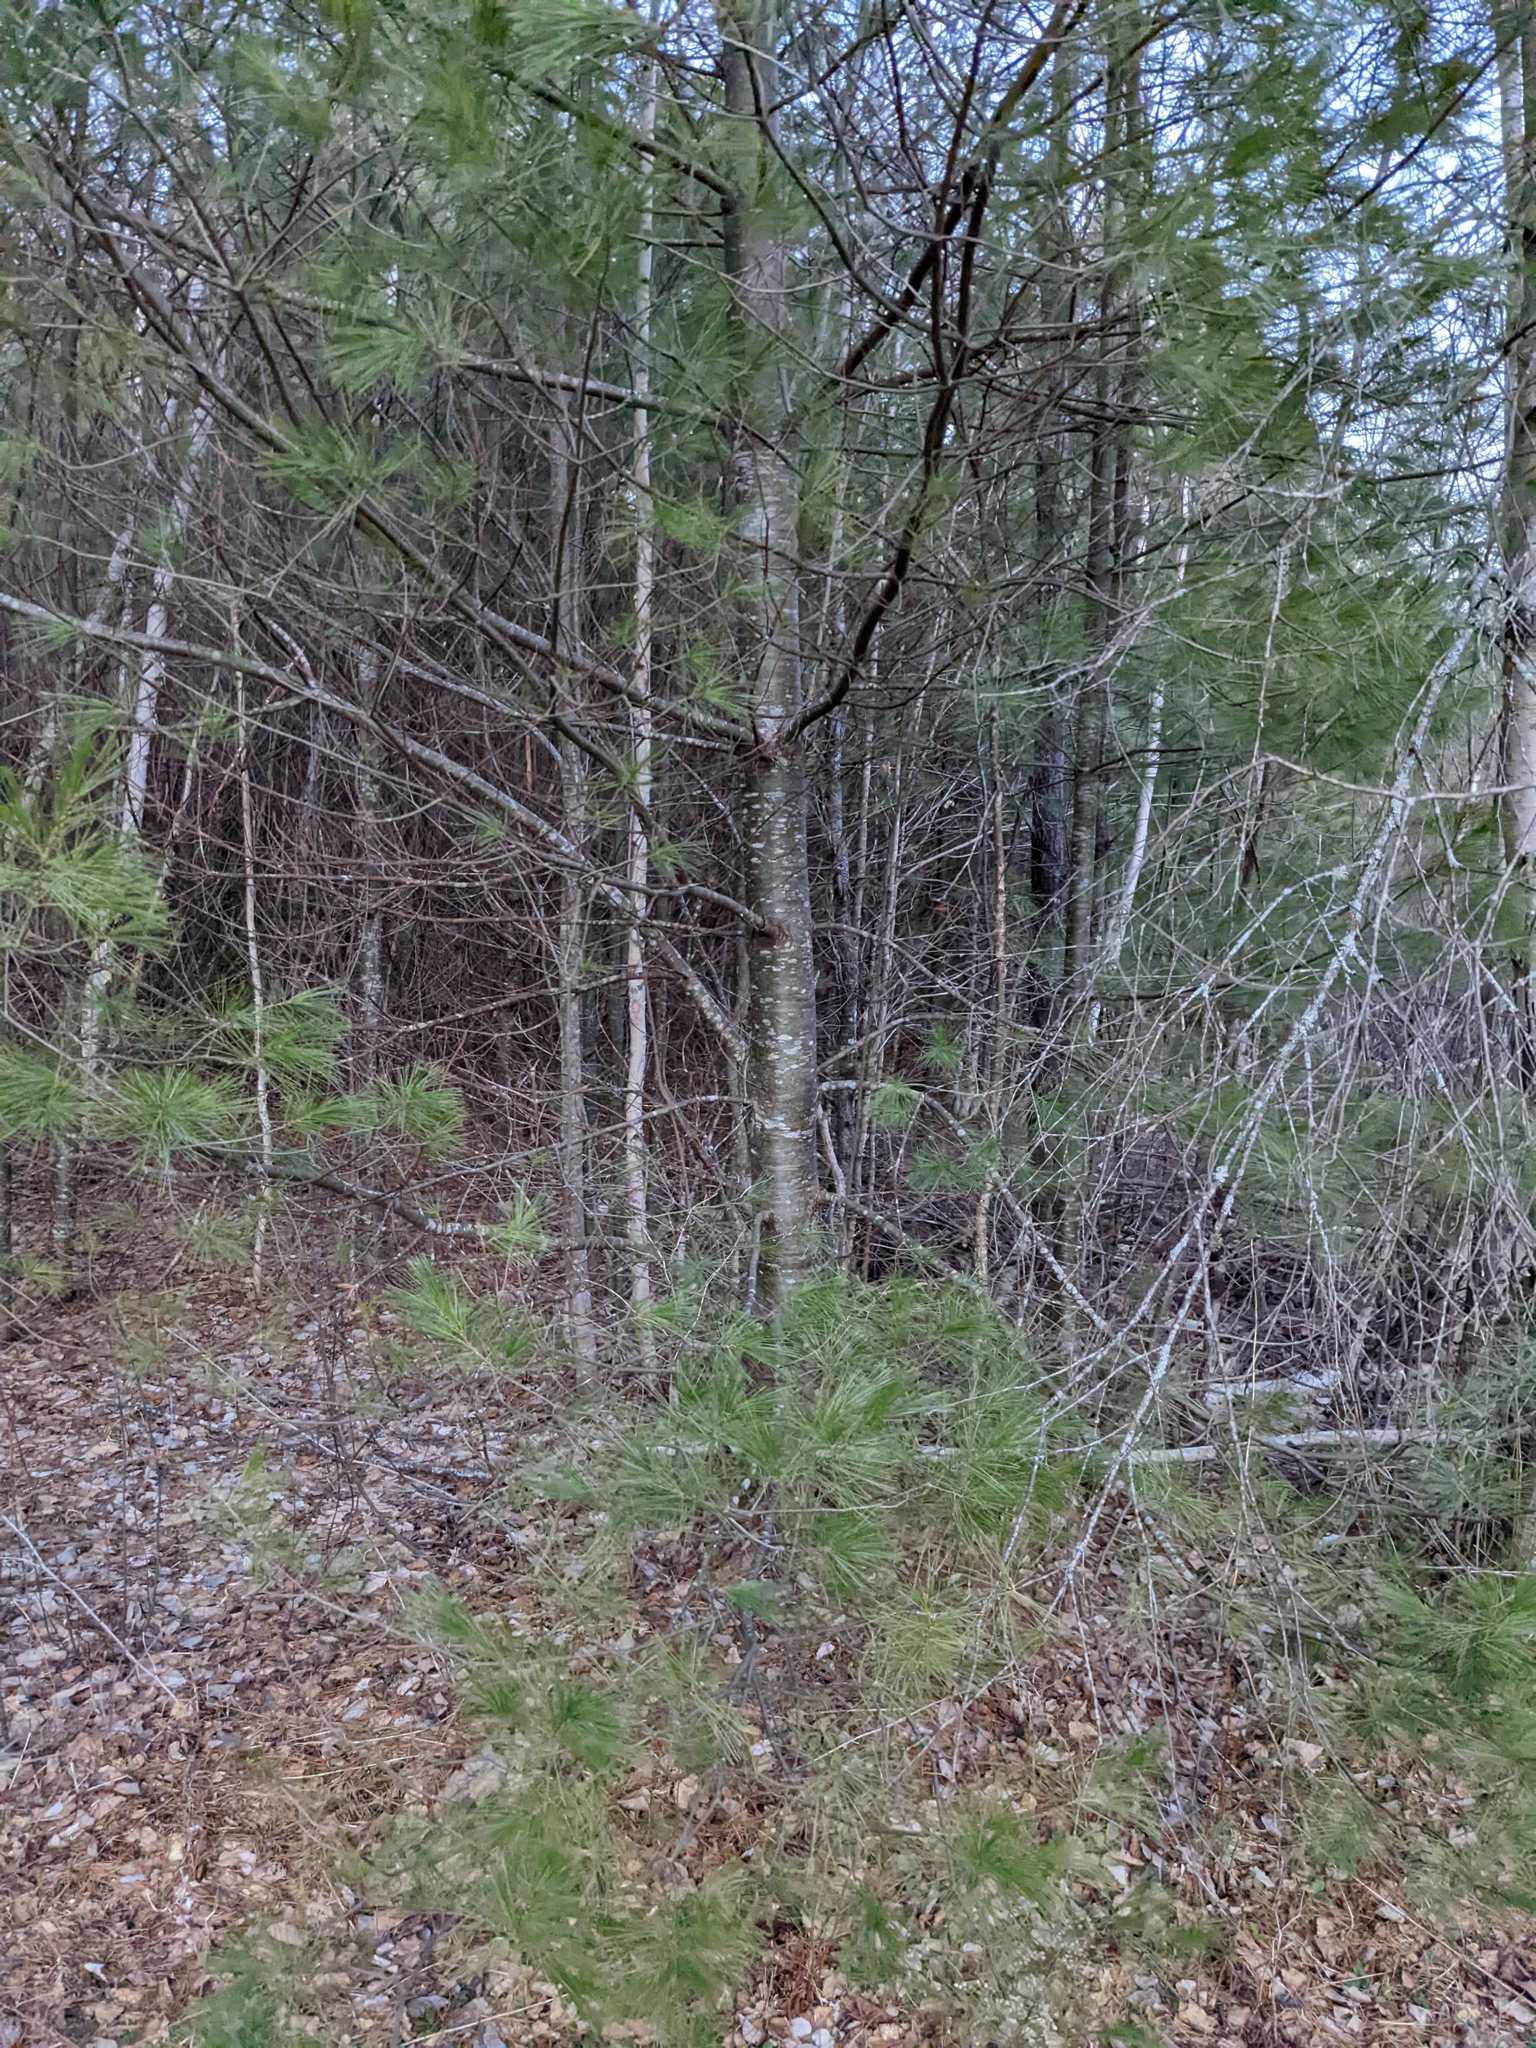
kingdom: Plantae
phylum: Tracheophyta
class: Pinopsida
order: Pinales
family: Pinaceae
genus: Pinus
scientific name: Pinus strobus
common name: Weymouth pine
